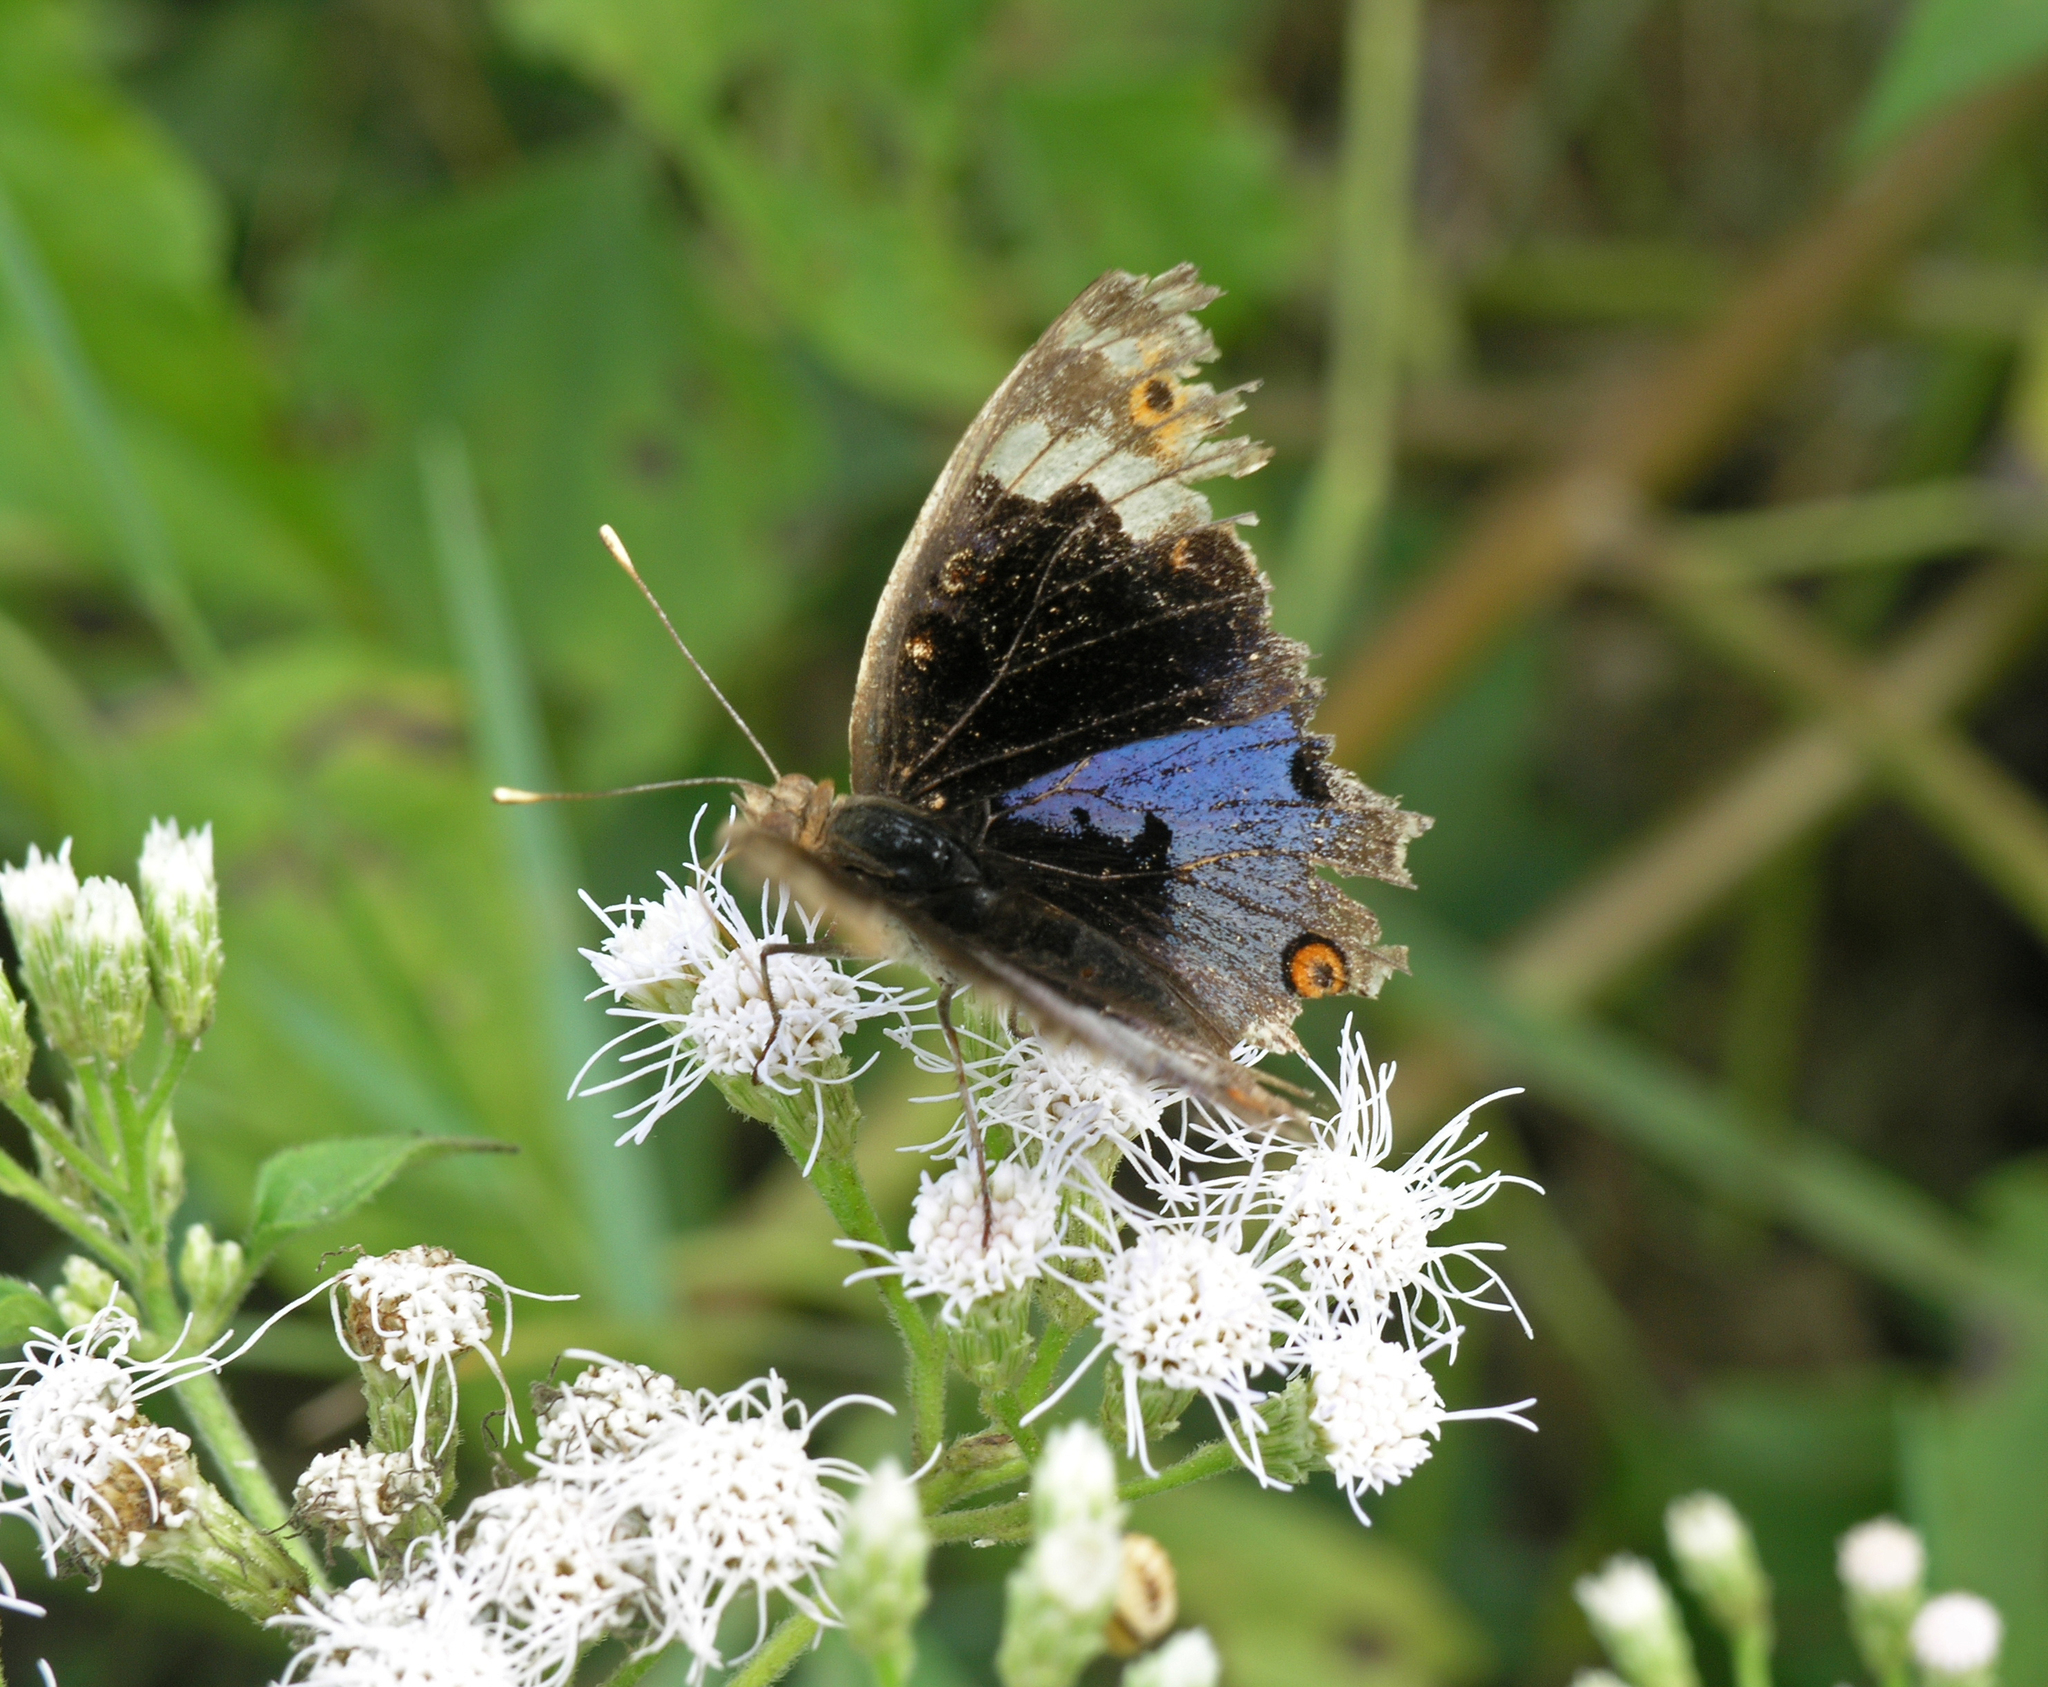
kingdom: Animalia
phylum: Arthropoda
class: Insecta
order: Lepidoptera
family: Nymphalidae
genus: Junonia
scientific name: Junonia orithya
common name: Blue pansy
